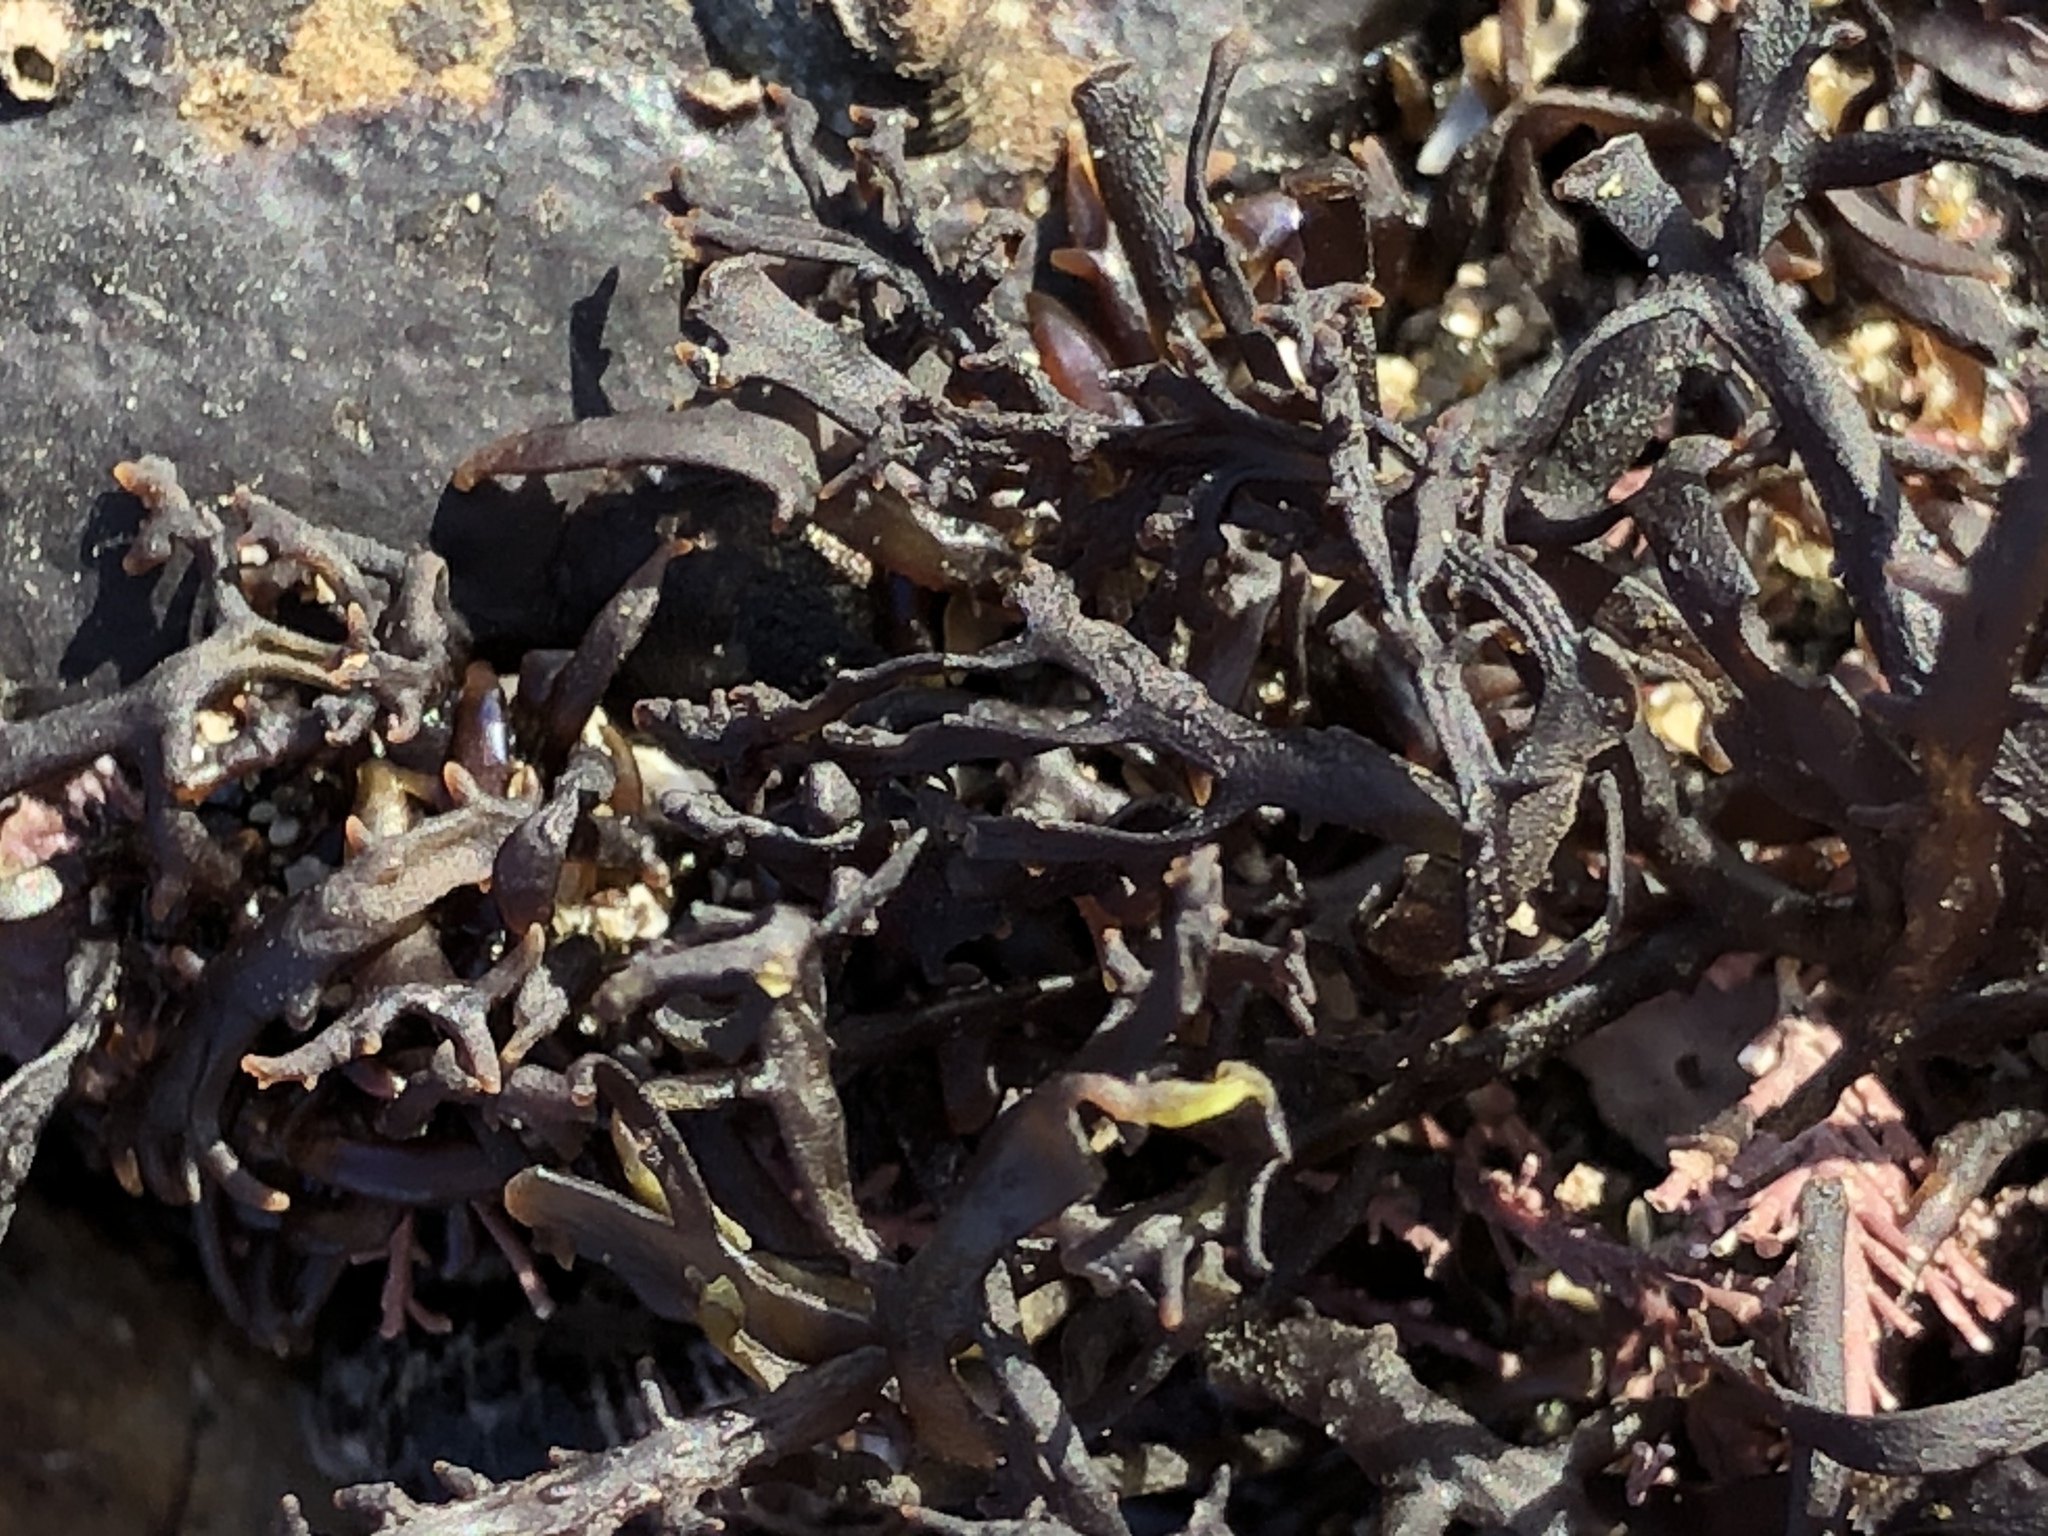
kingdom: Plantae
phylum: Rhodophyta
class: Florideophyceae
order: Gigartinales
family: Gigartinaceae
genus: Chondracanthus
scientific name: Chondracanthus canaliculatus
